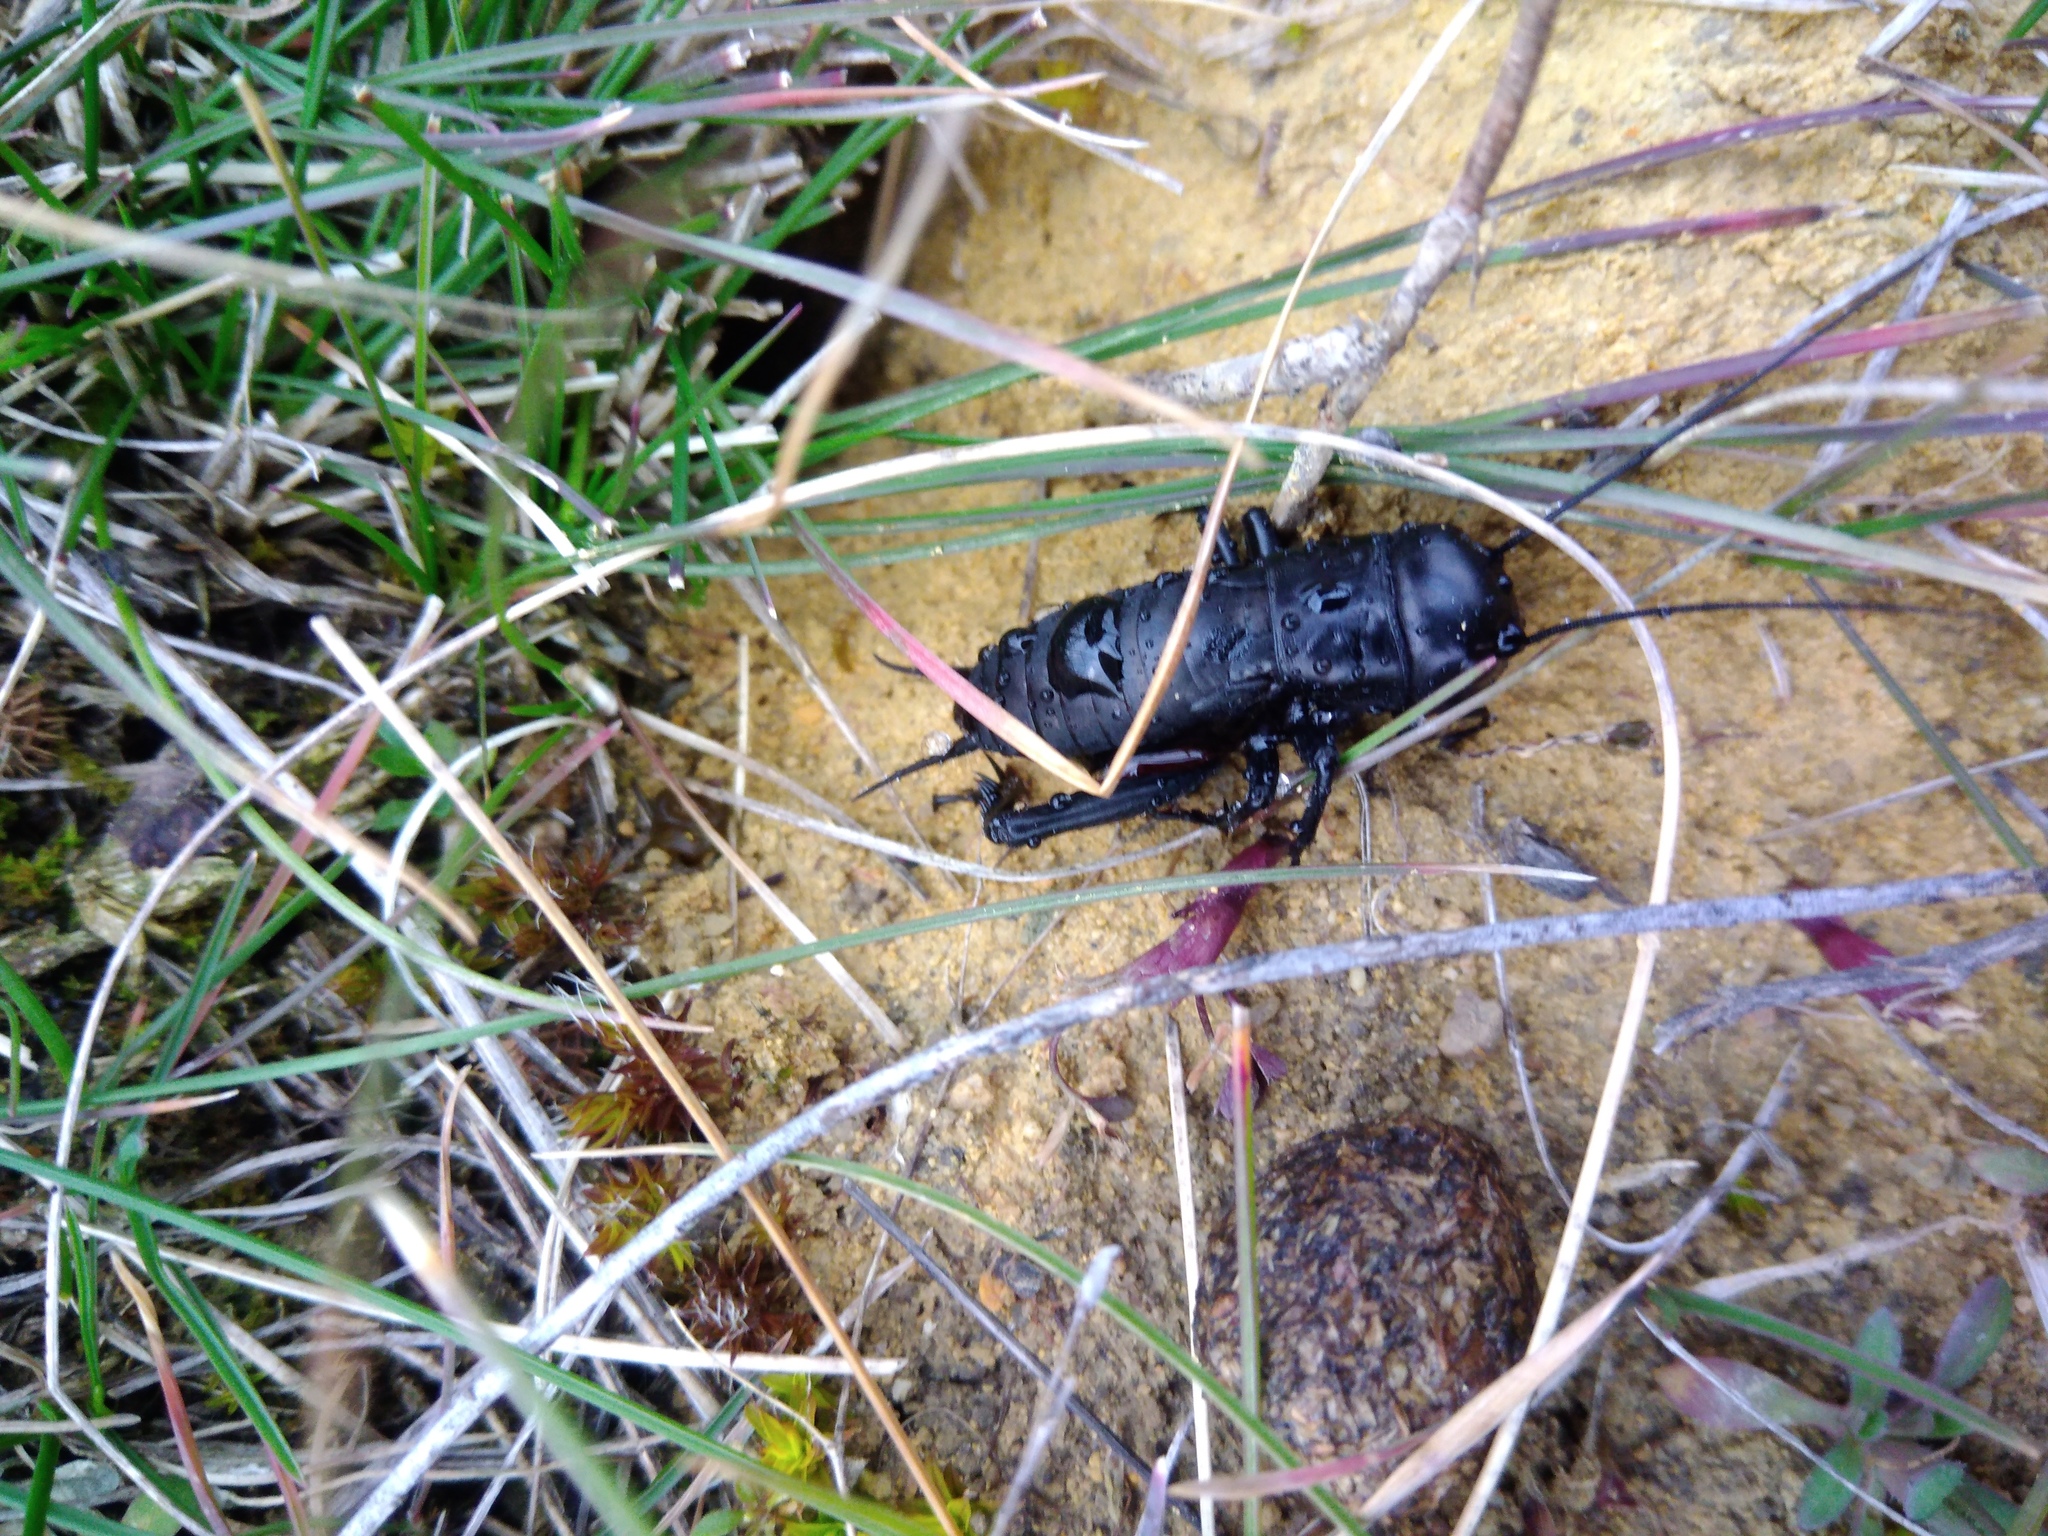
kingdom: Animalia
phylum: Arthropoda
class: Insecta
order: Orthoptera
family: Gryllidae
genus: Gryllus
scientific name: Gryllus campestris
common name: Field cricket
